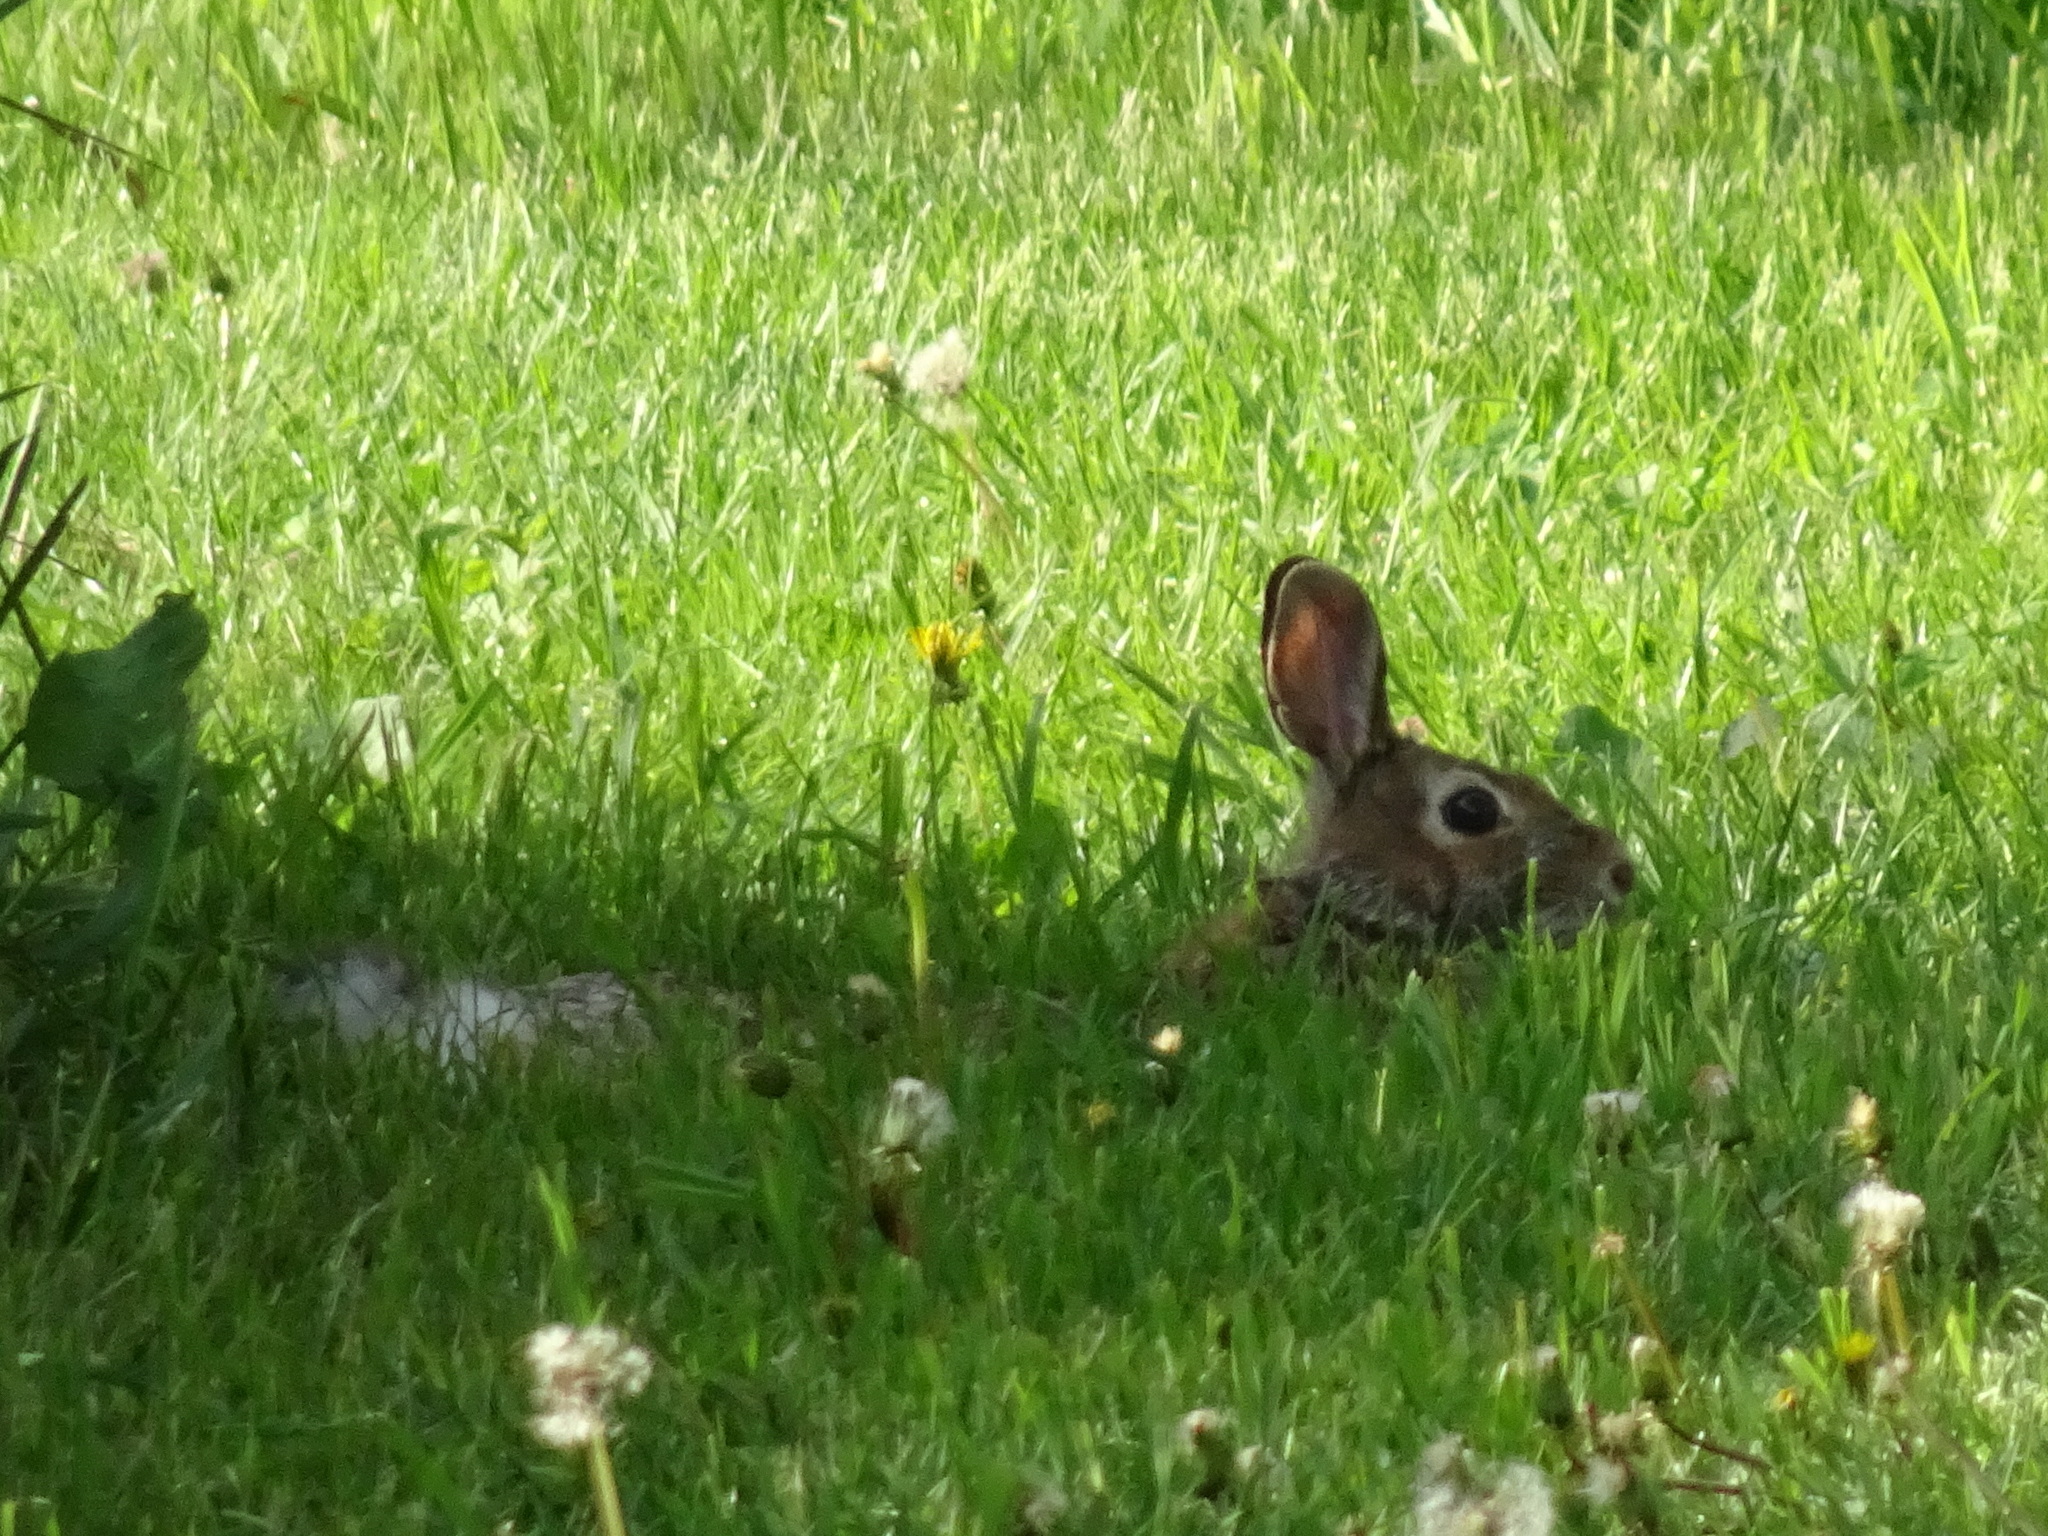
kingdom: Animalia
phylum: Chordata
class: Mammalia
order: Lagomorpha
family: Leporidae
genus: Sylvilagus
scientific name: Sylvilagus floridanus
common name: Eastern cottontail
